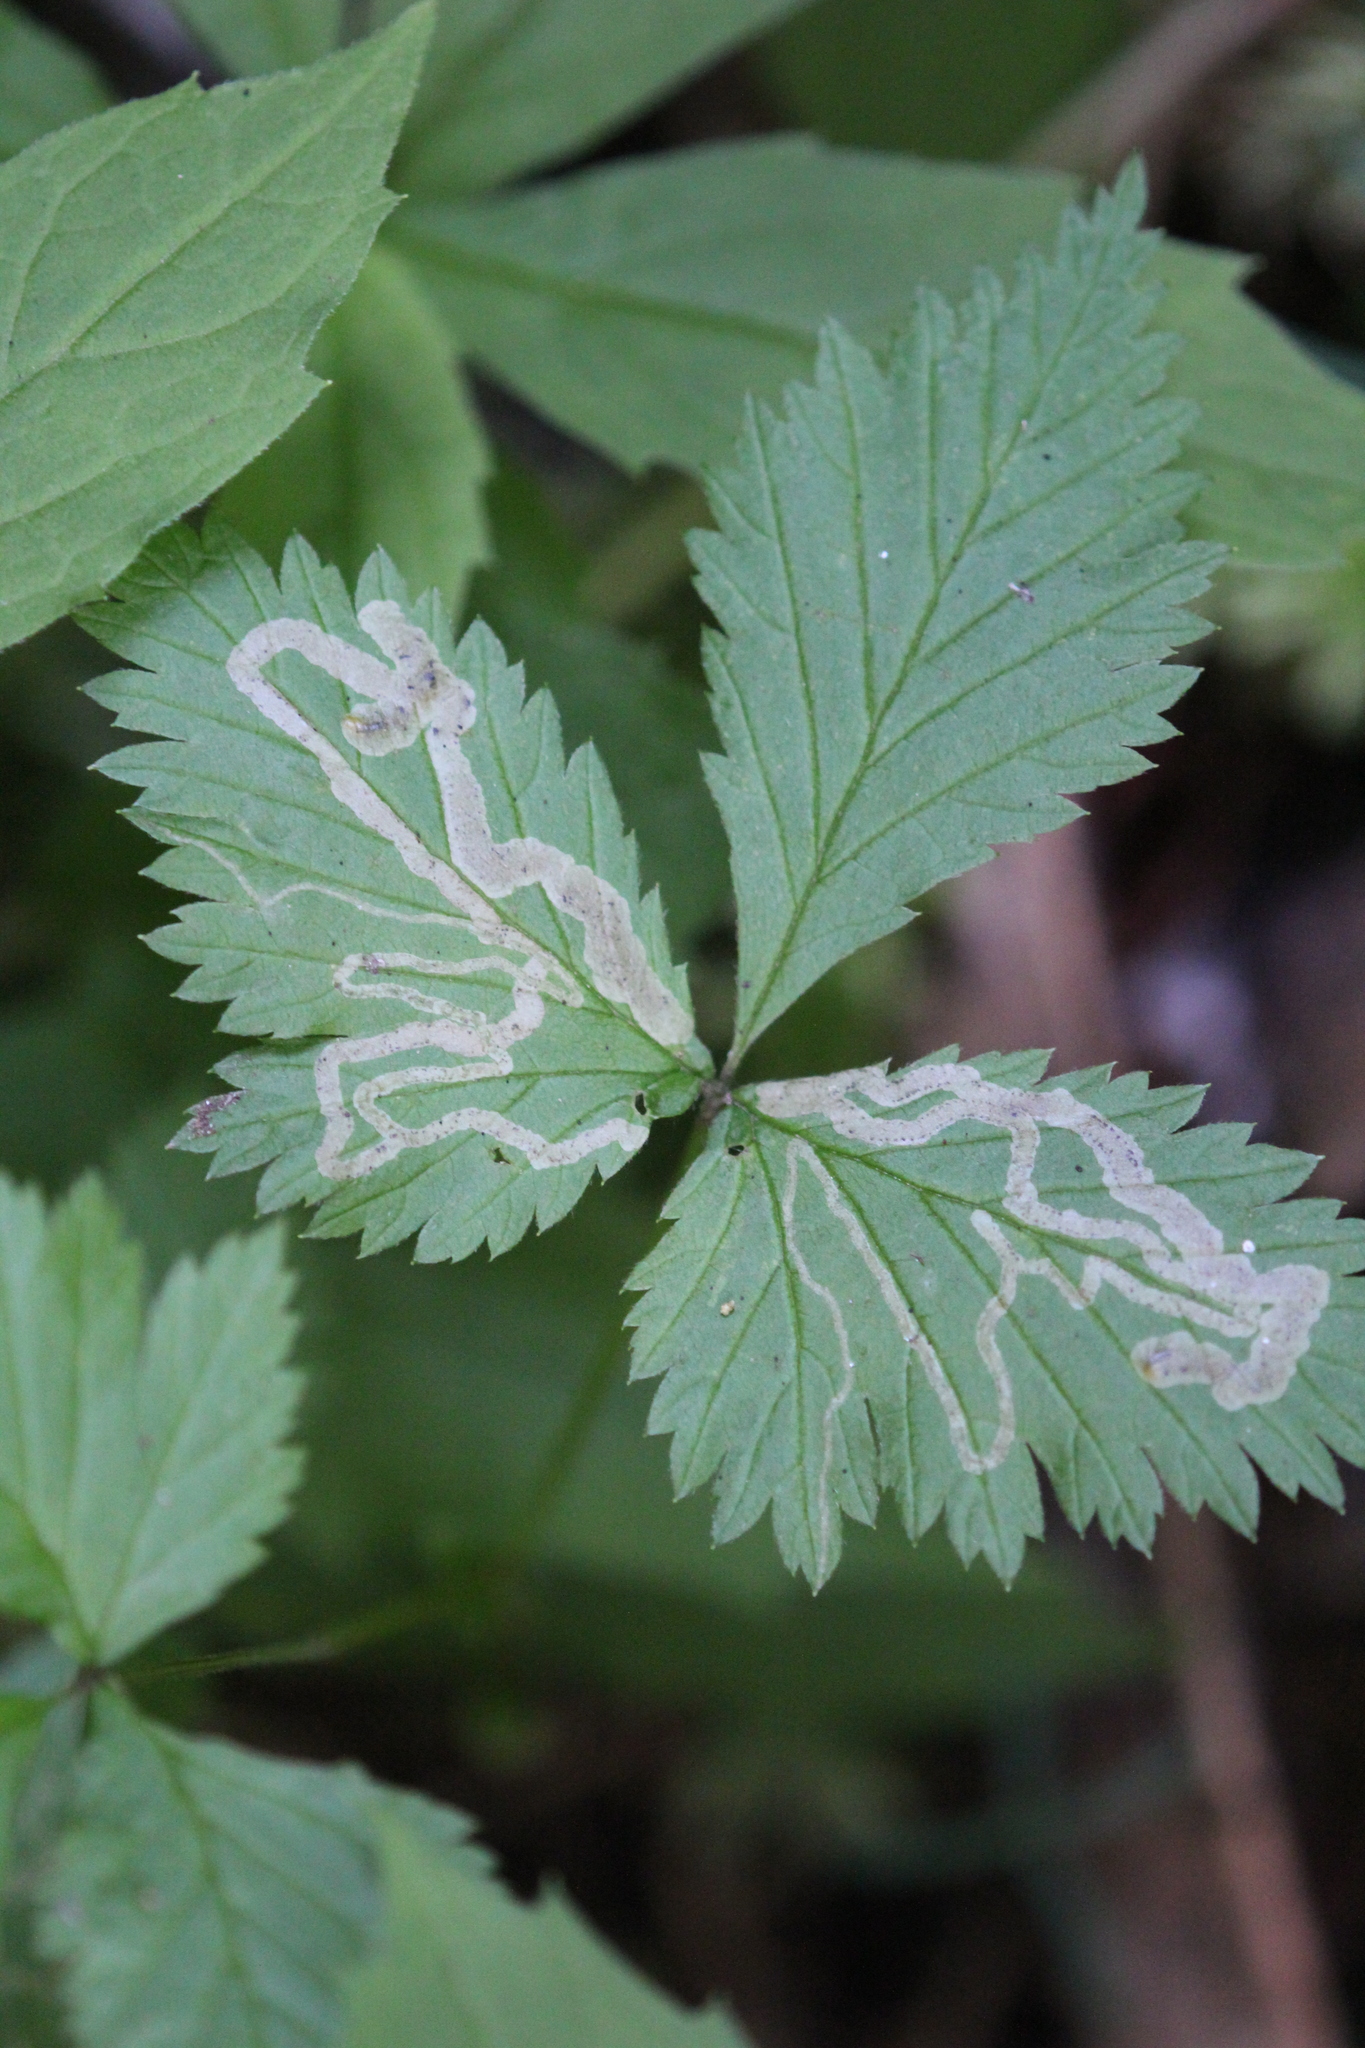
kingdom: Plantae
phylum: Tracheophyta
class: Magnoliopsida
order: Rosales
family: Rosaceae
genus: Rubus
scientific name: Rubus pubescens
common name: Dwarf raspberry
